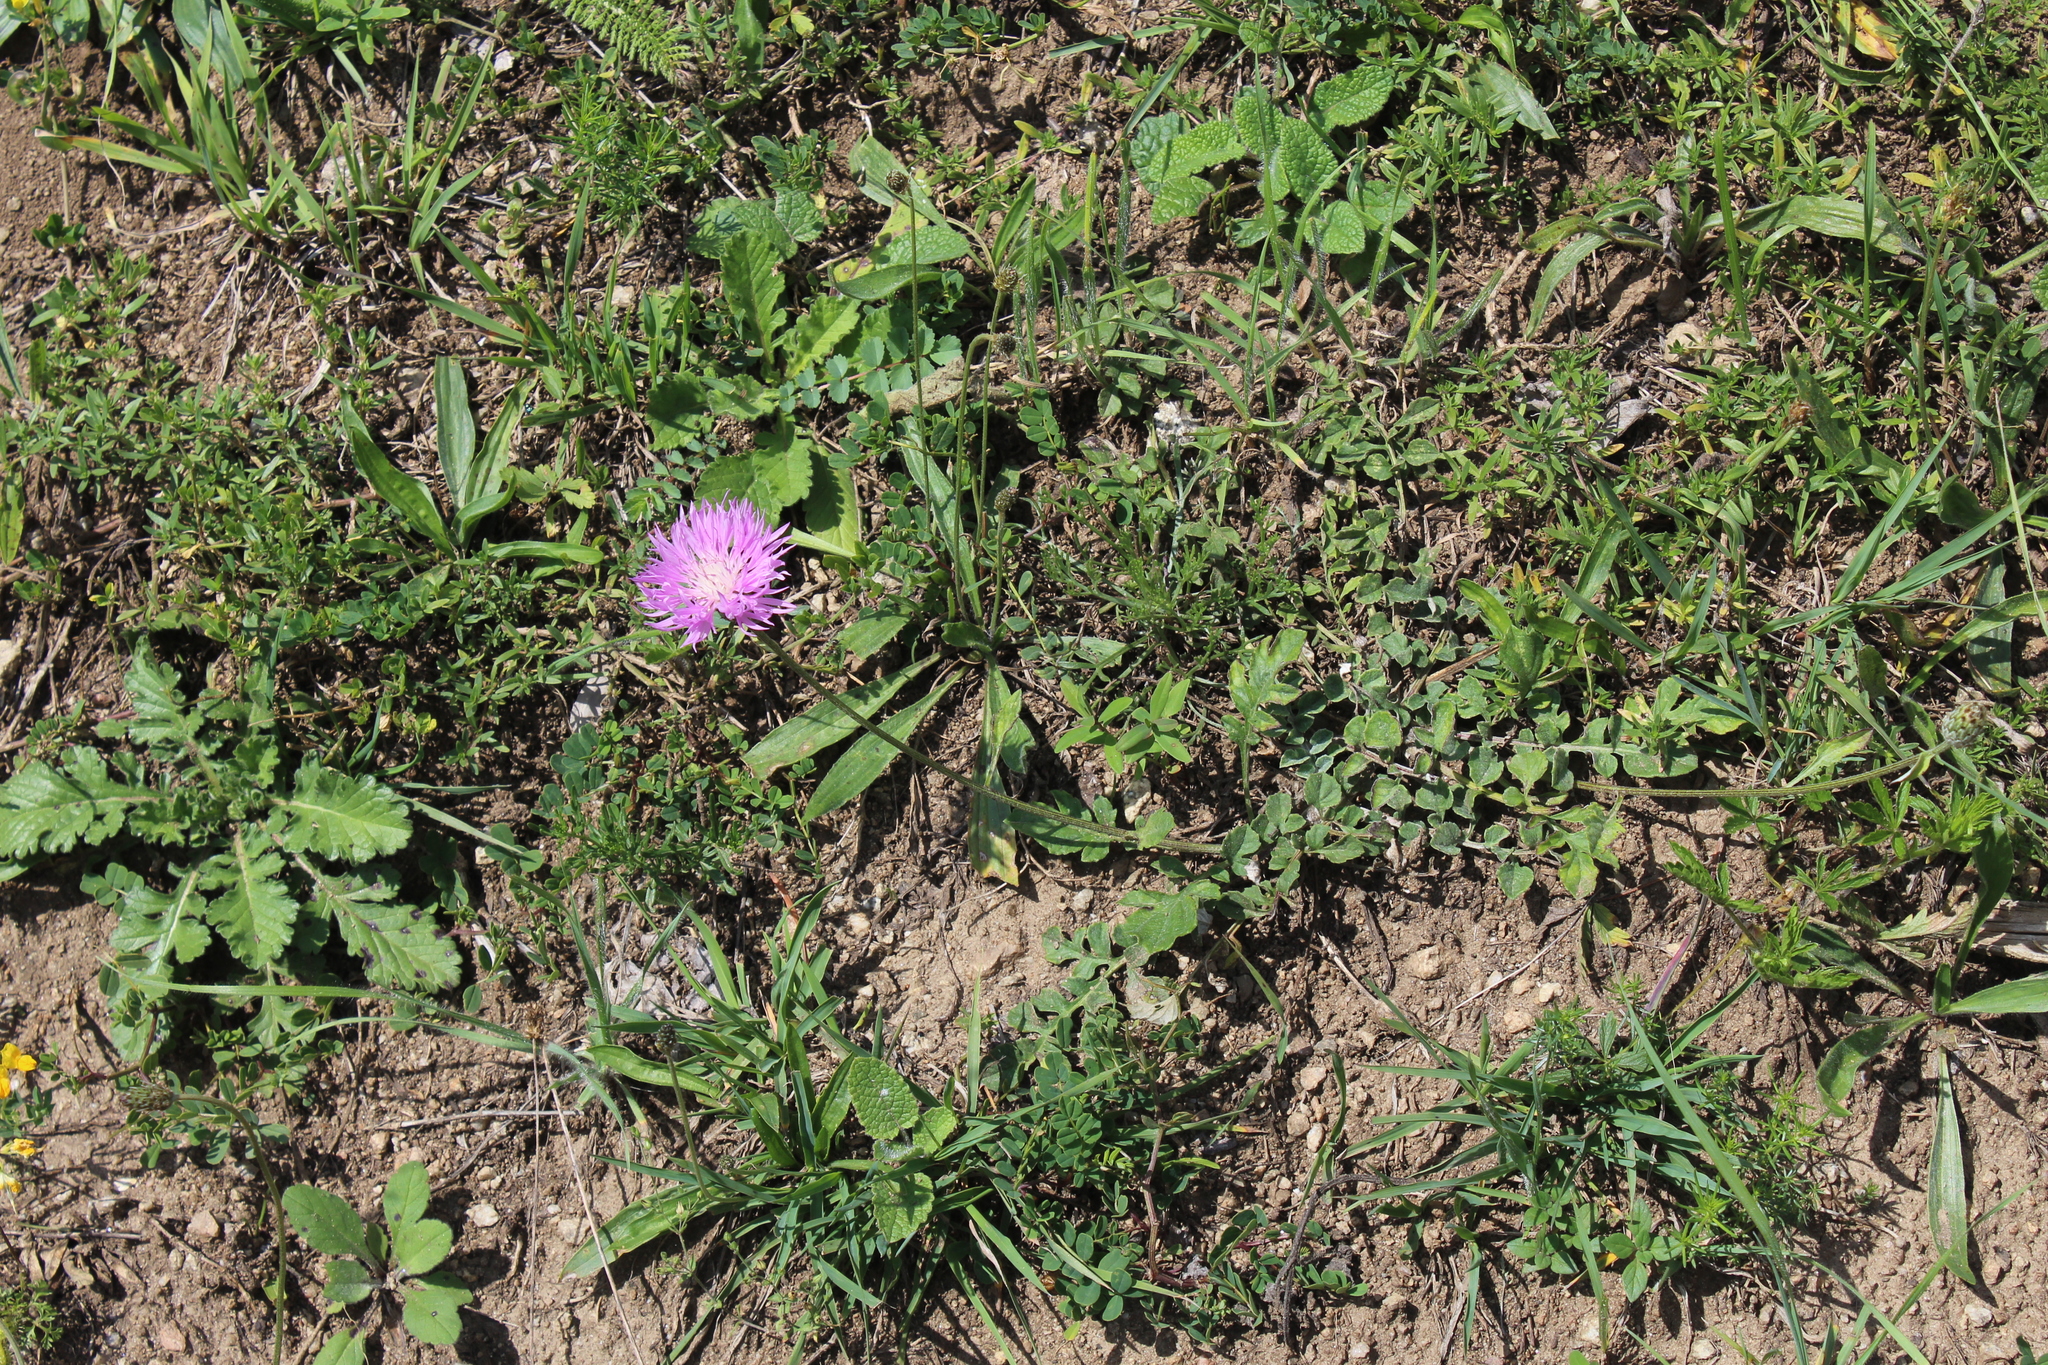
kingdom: Plantae
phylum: Tracheophyta
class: Magnoliopsida
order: Asterales
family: Asteraceae
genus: Psephellus
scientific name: Psephellus salviifolius
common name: Sage-leaved psephellus
